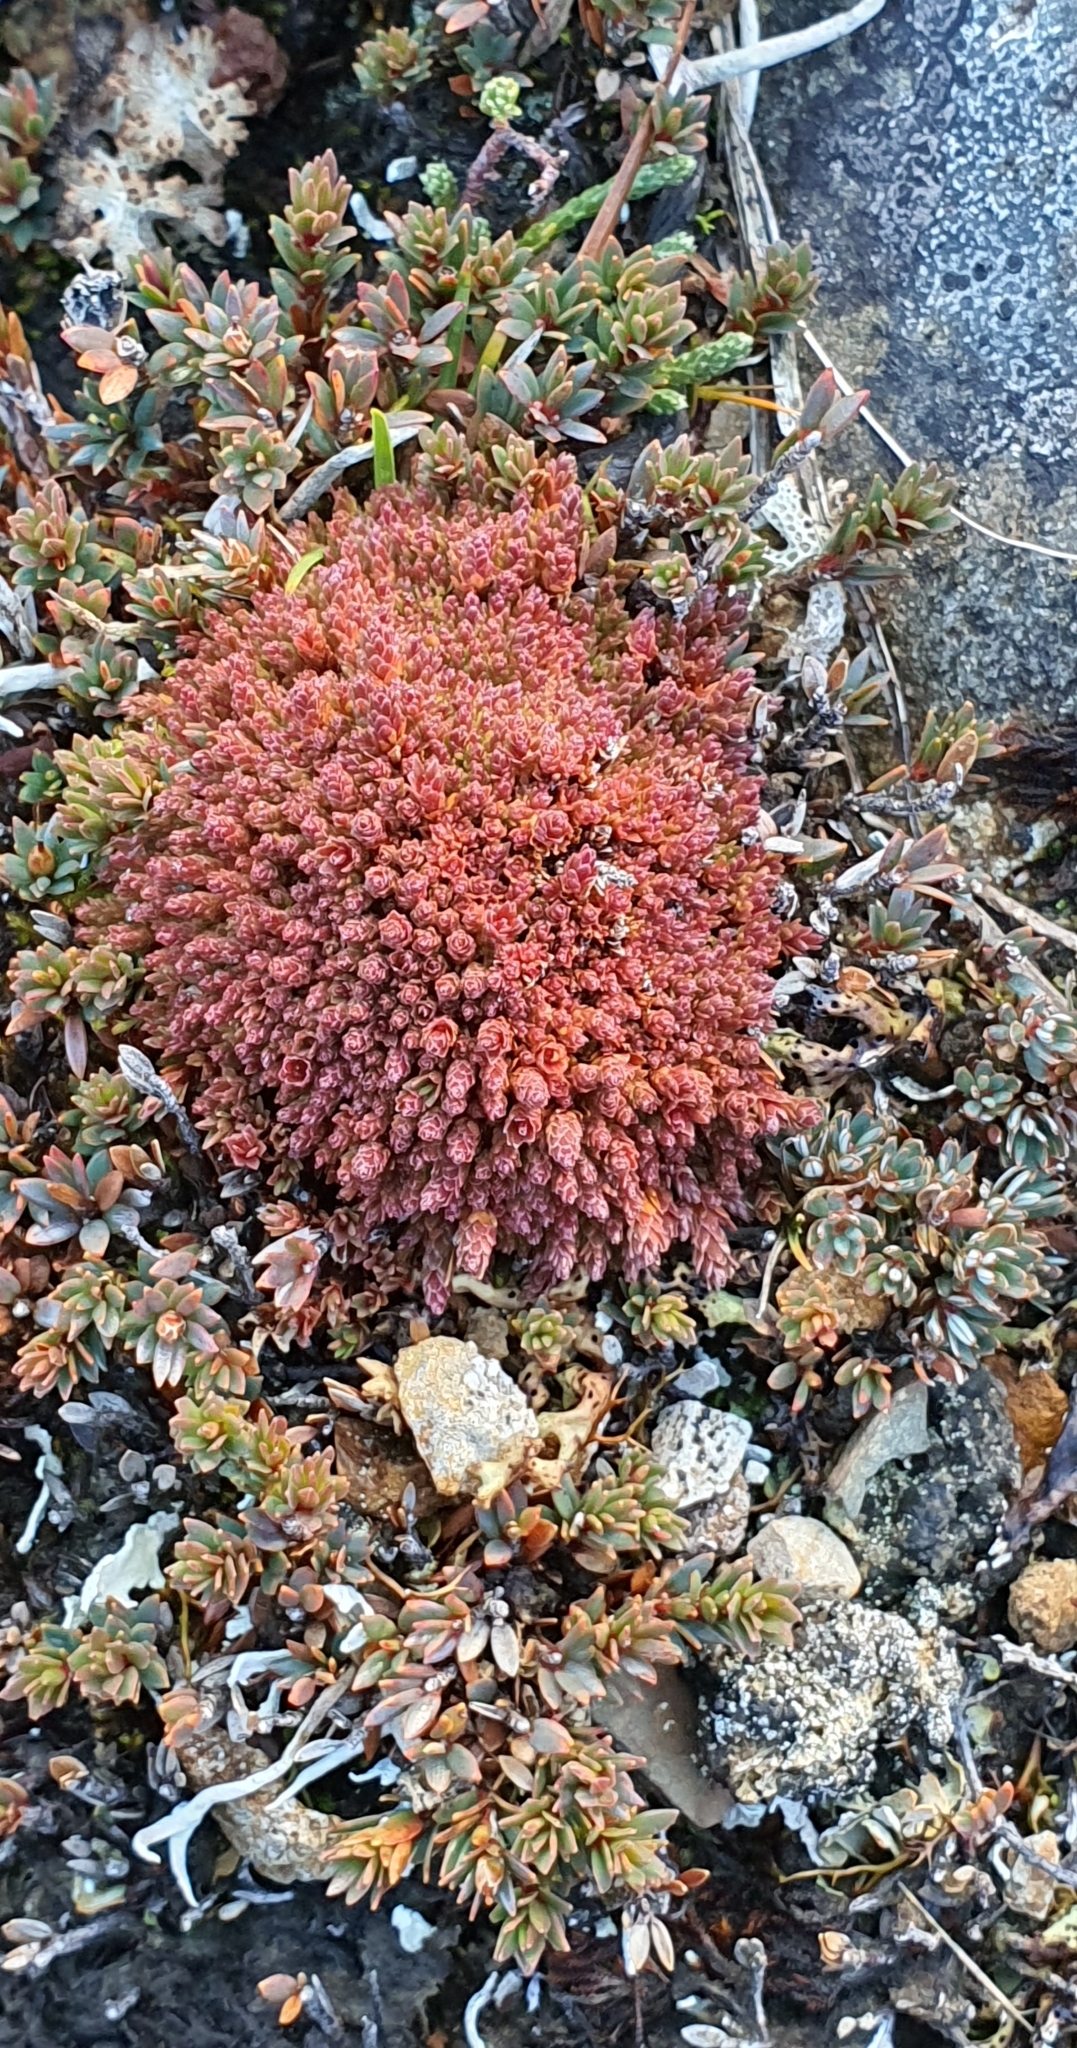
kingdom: Plantae
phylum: Tracheophyta
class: Magnoliopsida
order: Ericales
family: Ericaceae
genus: Pentachondra
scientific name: Pentachondra pumila
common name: Carpet-heath
